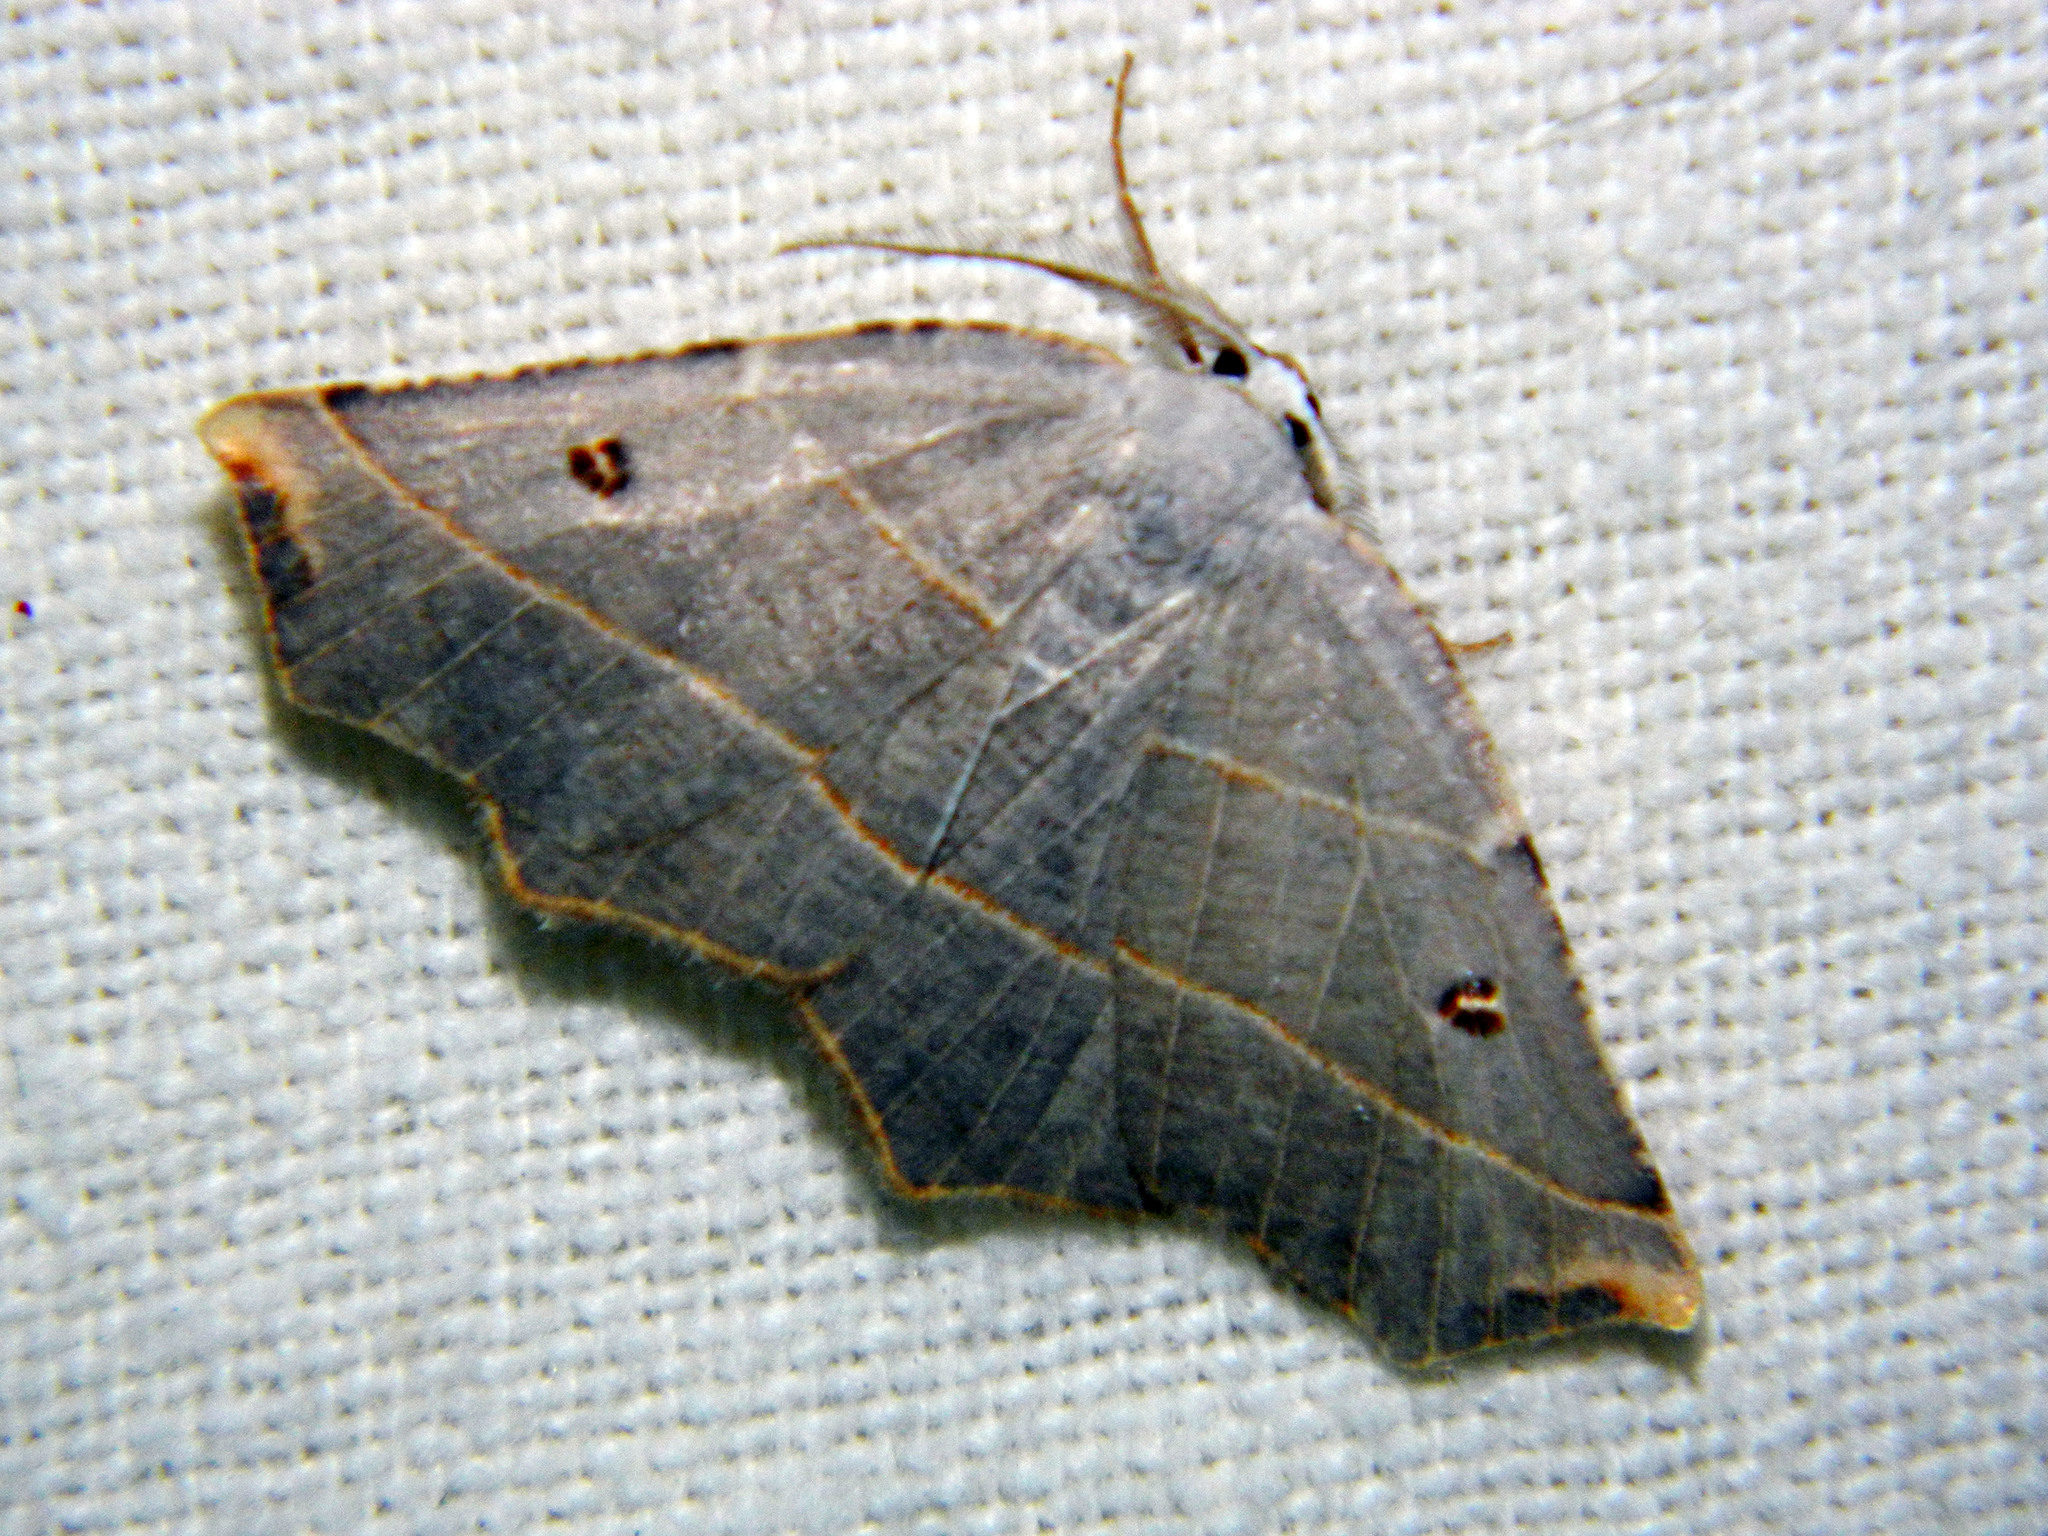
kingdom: Animalia
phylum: Arthropoda
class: Insecta
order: Lepidoptera
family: Geometridae
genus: Metanema
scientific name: Metanema inatomaria
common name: Pale metanema
